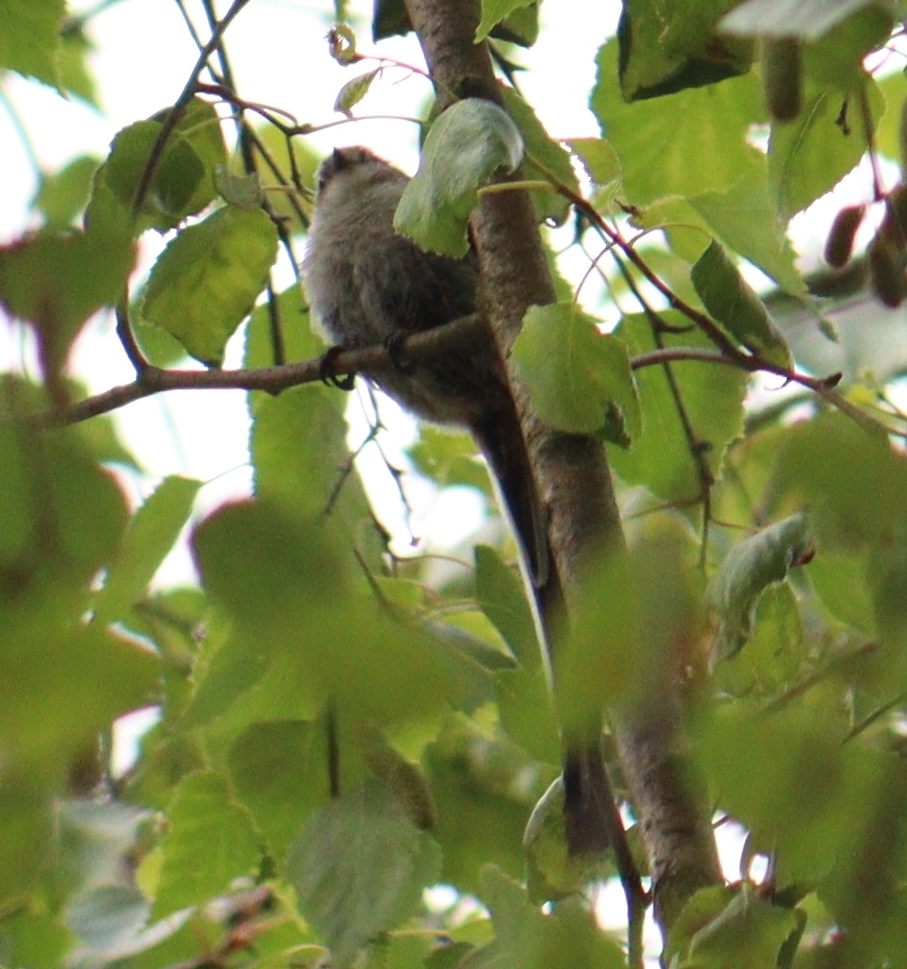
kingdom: Animalia
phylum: Chordata
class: Aves
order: Passeriformes
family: Aegithalidae
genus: Aegithalos
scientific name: Aegithalos caudatus
